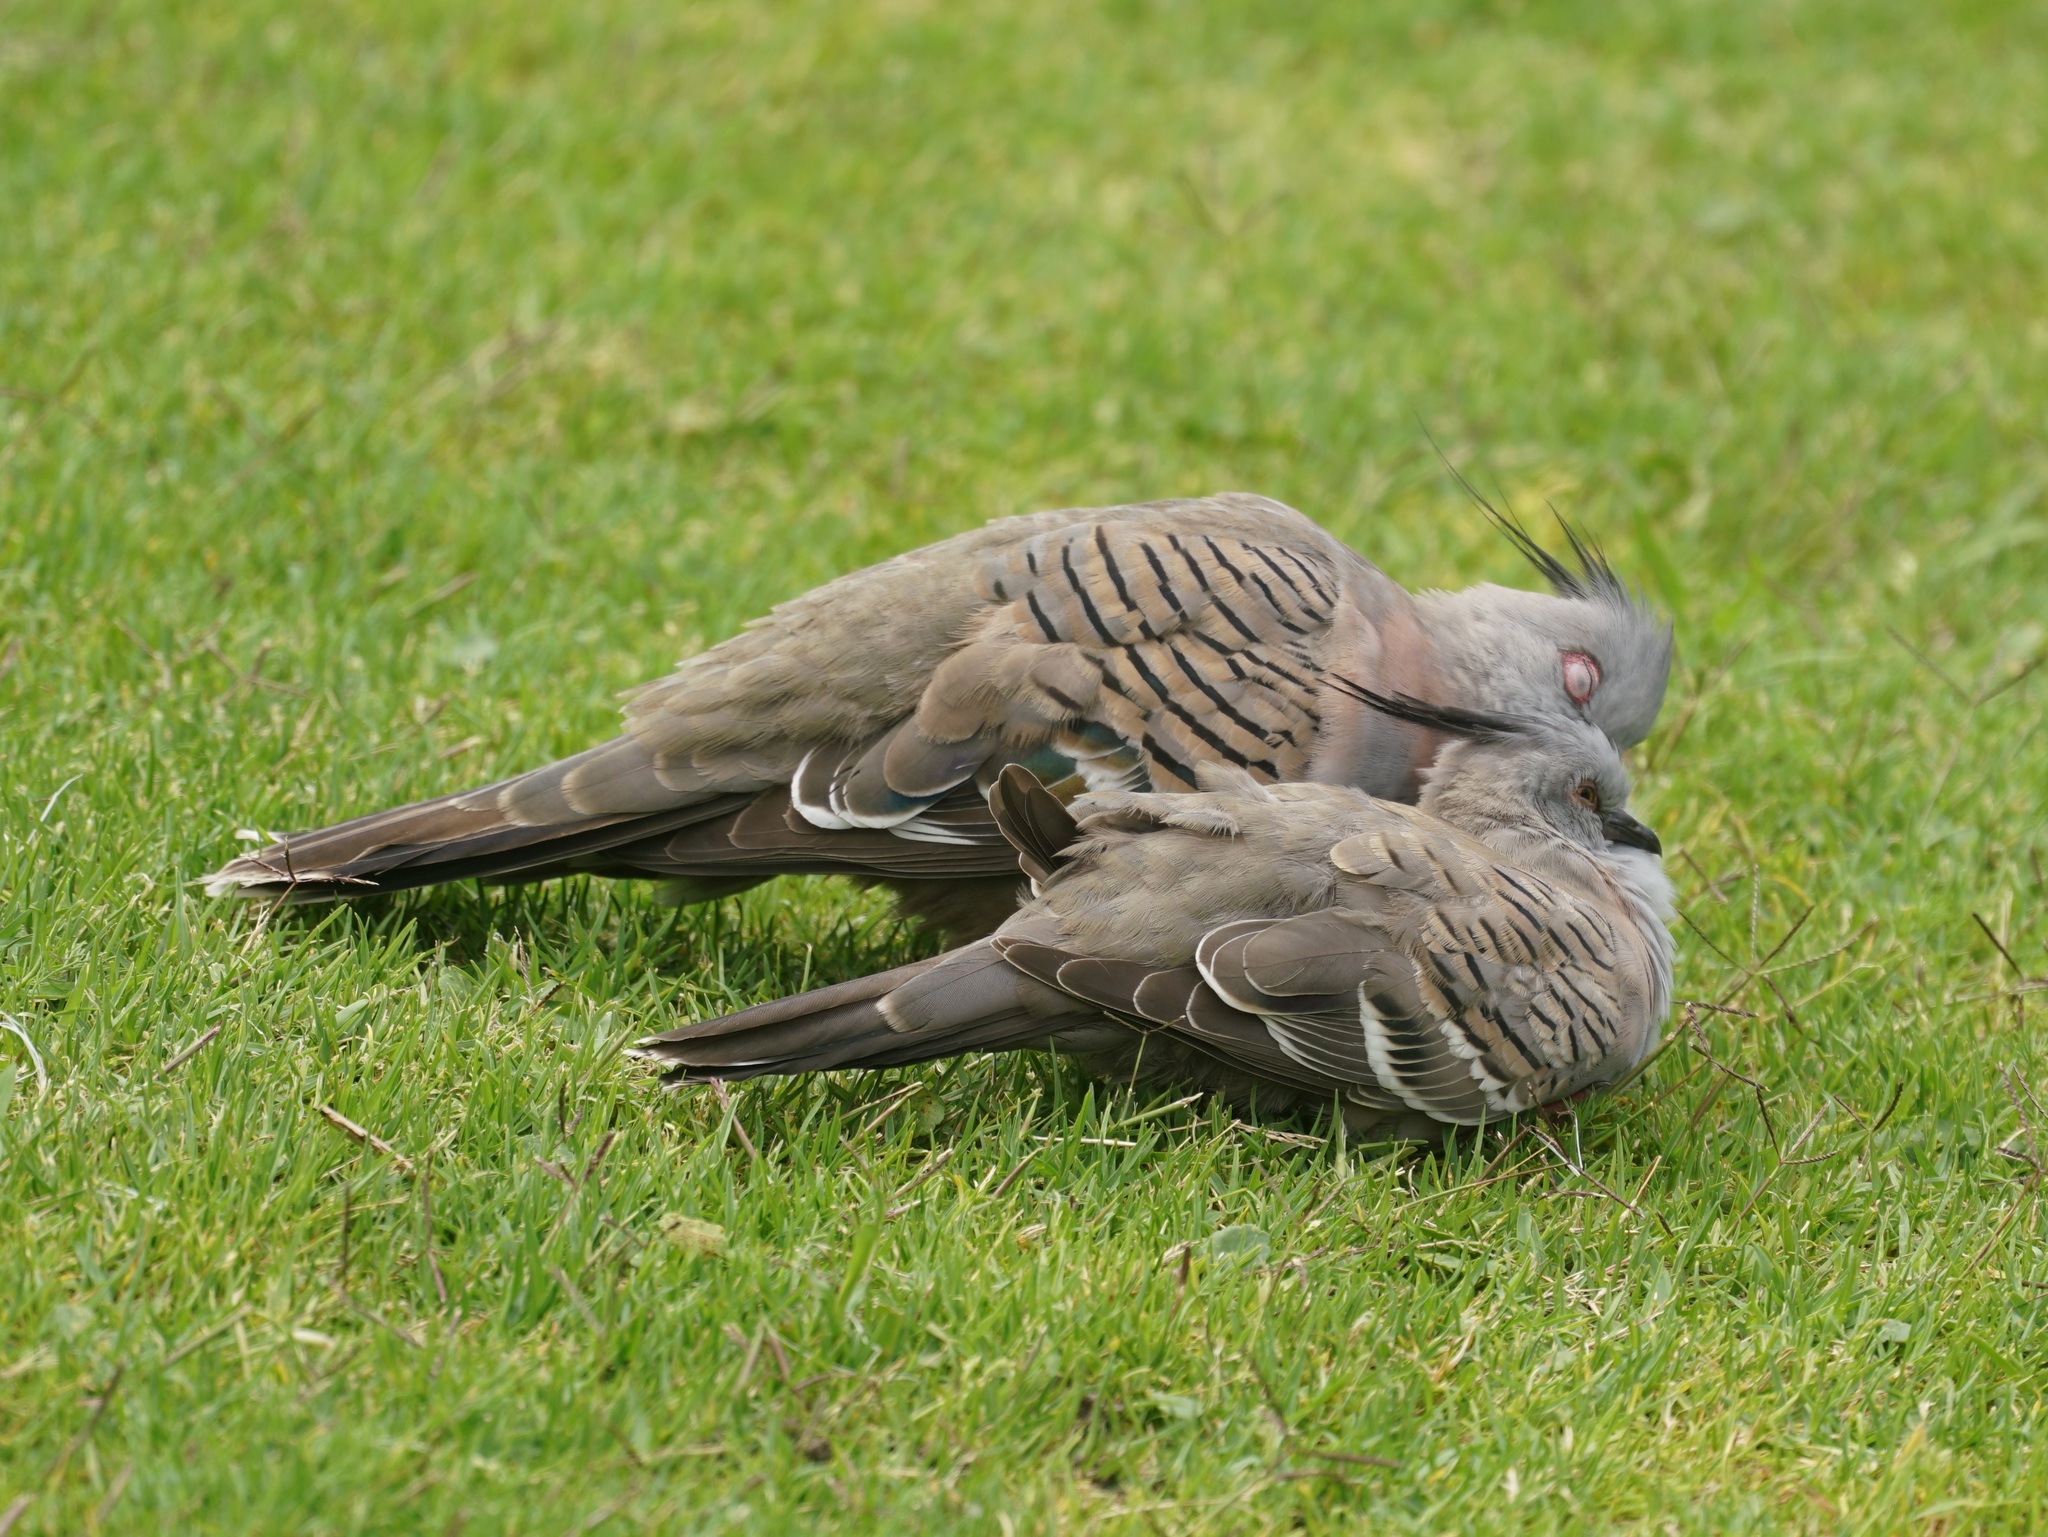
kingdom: Animalia
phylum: Chordata
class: Aves
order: Columbiformes
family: Columbidae
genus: Ocyphaps
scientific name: Ocyphaps lophotes
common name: Crested pigeon
